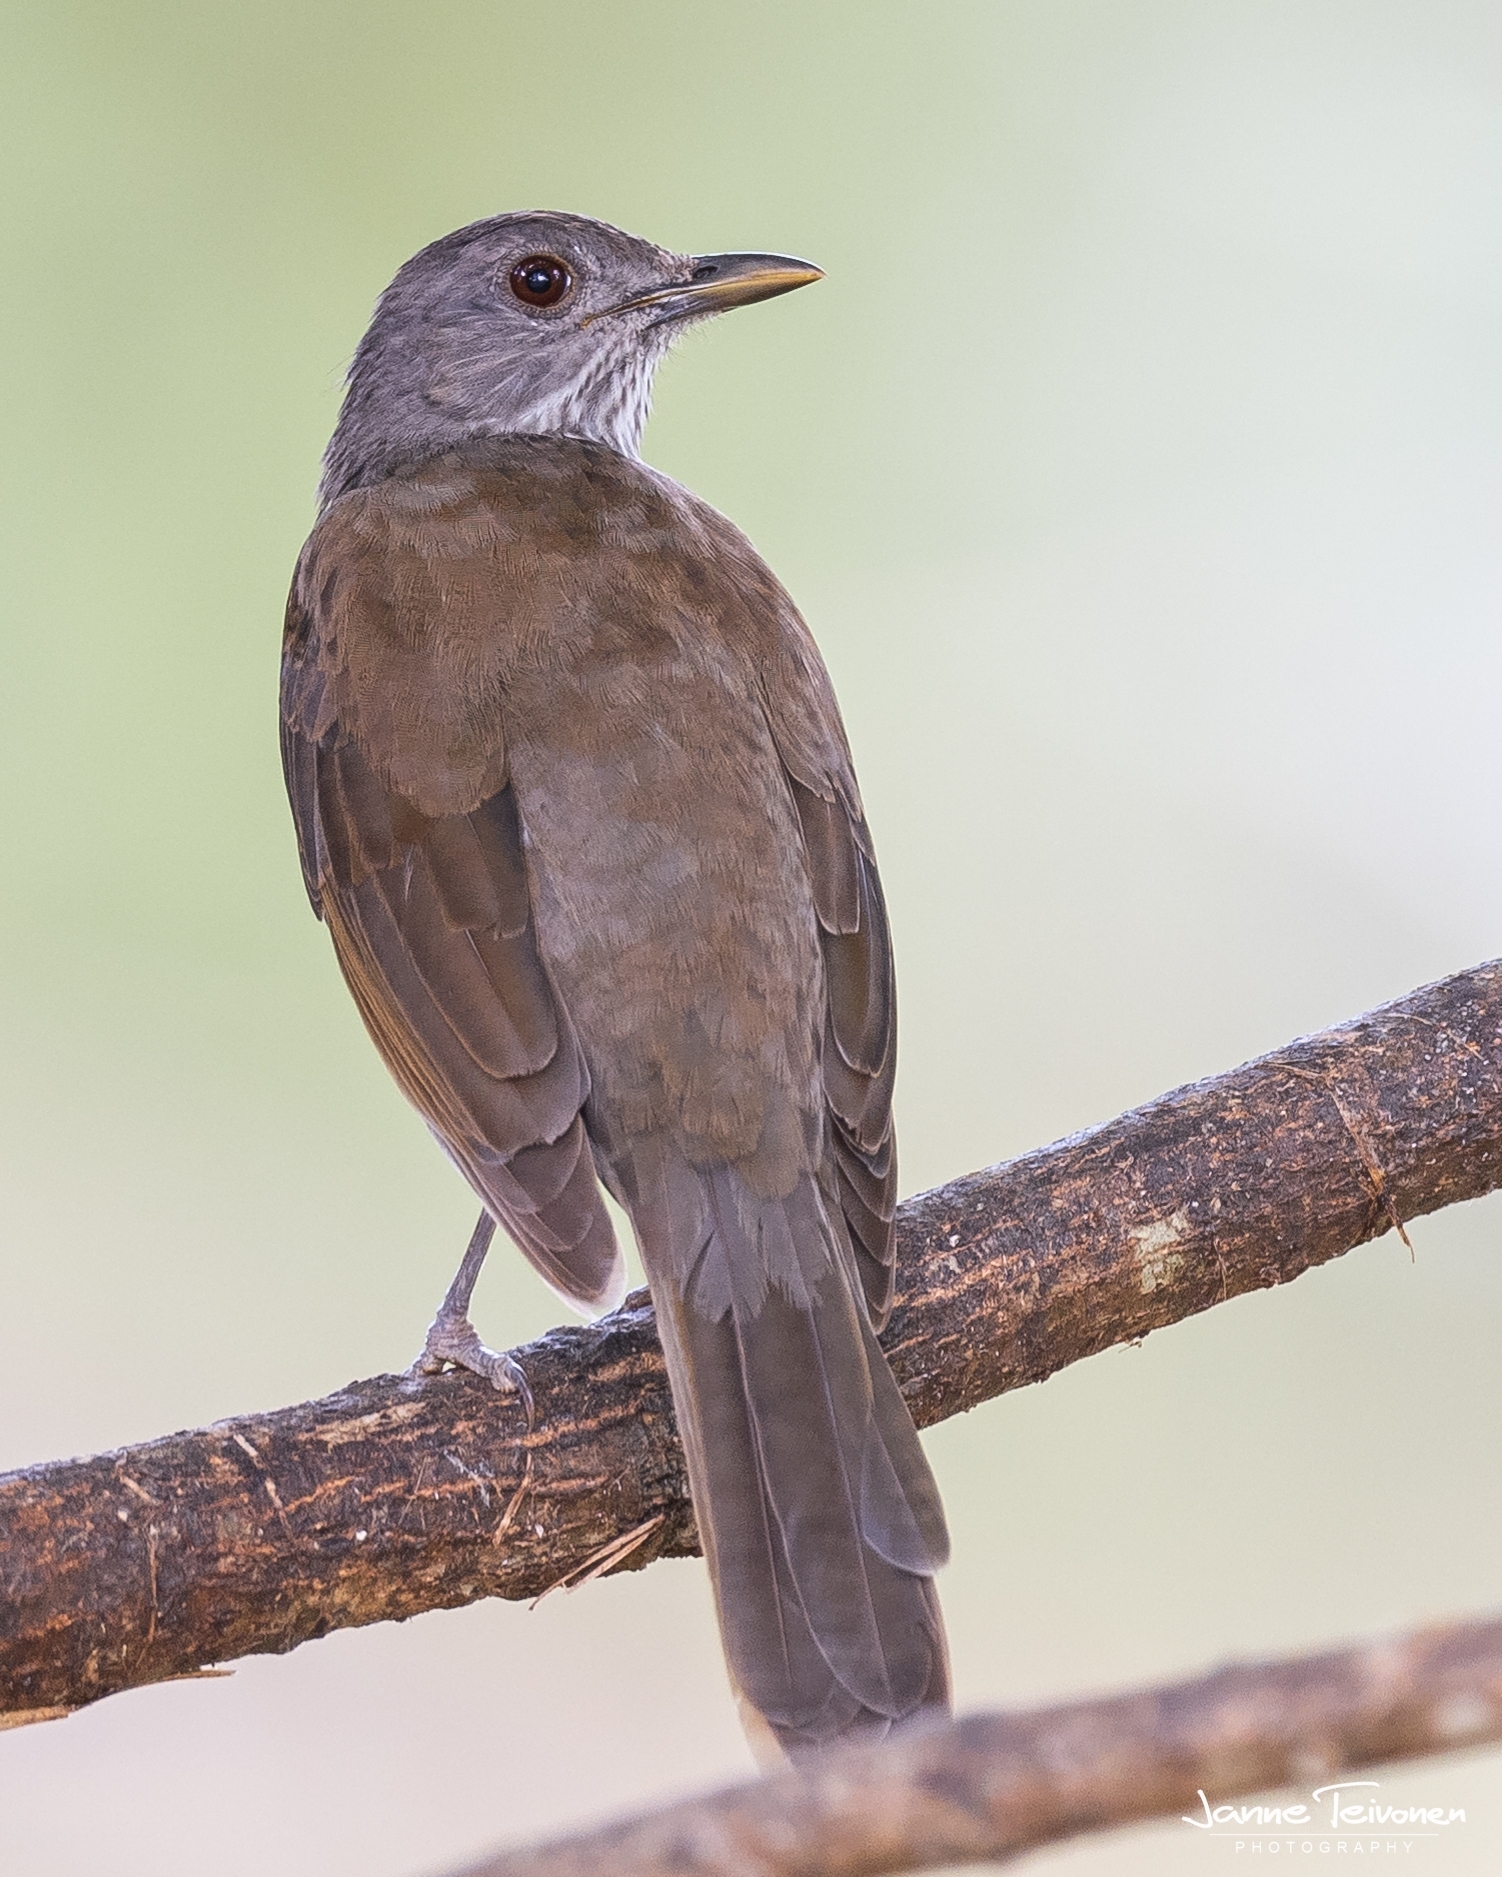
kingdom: Animalia
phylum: Chordata
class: Aves
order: Passeriformes
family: Turdidae
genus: Turdus
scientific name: Turdus leucomelas
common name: Pale-breasted thrush
